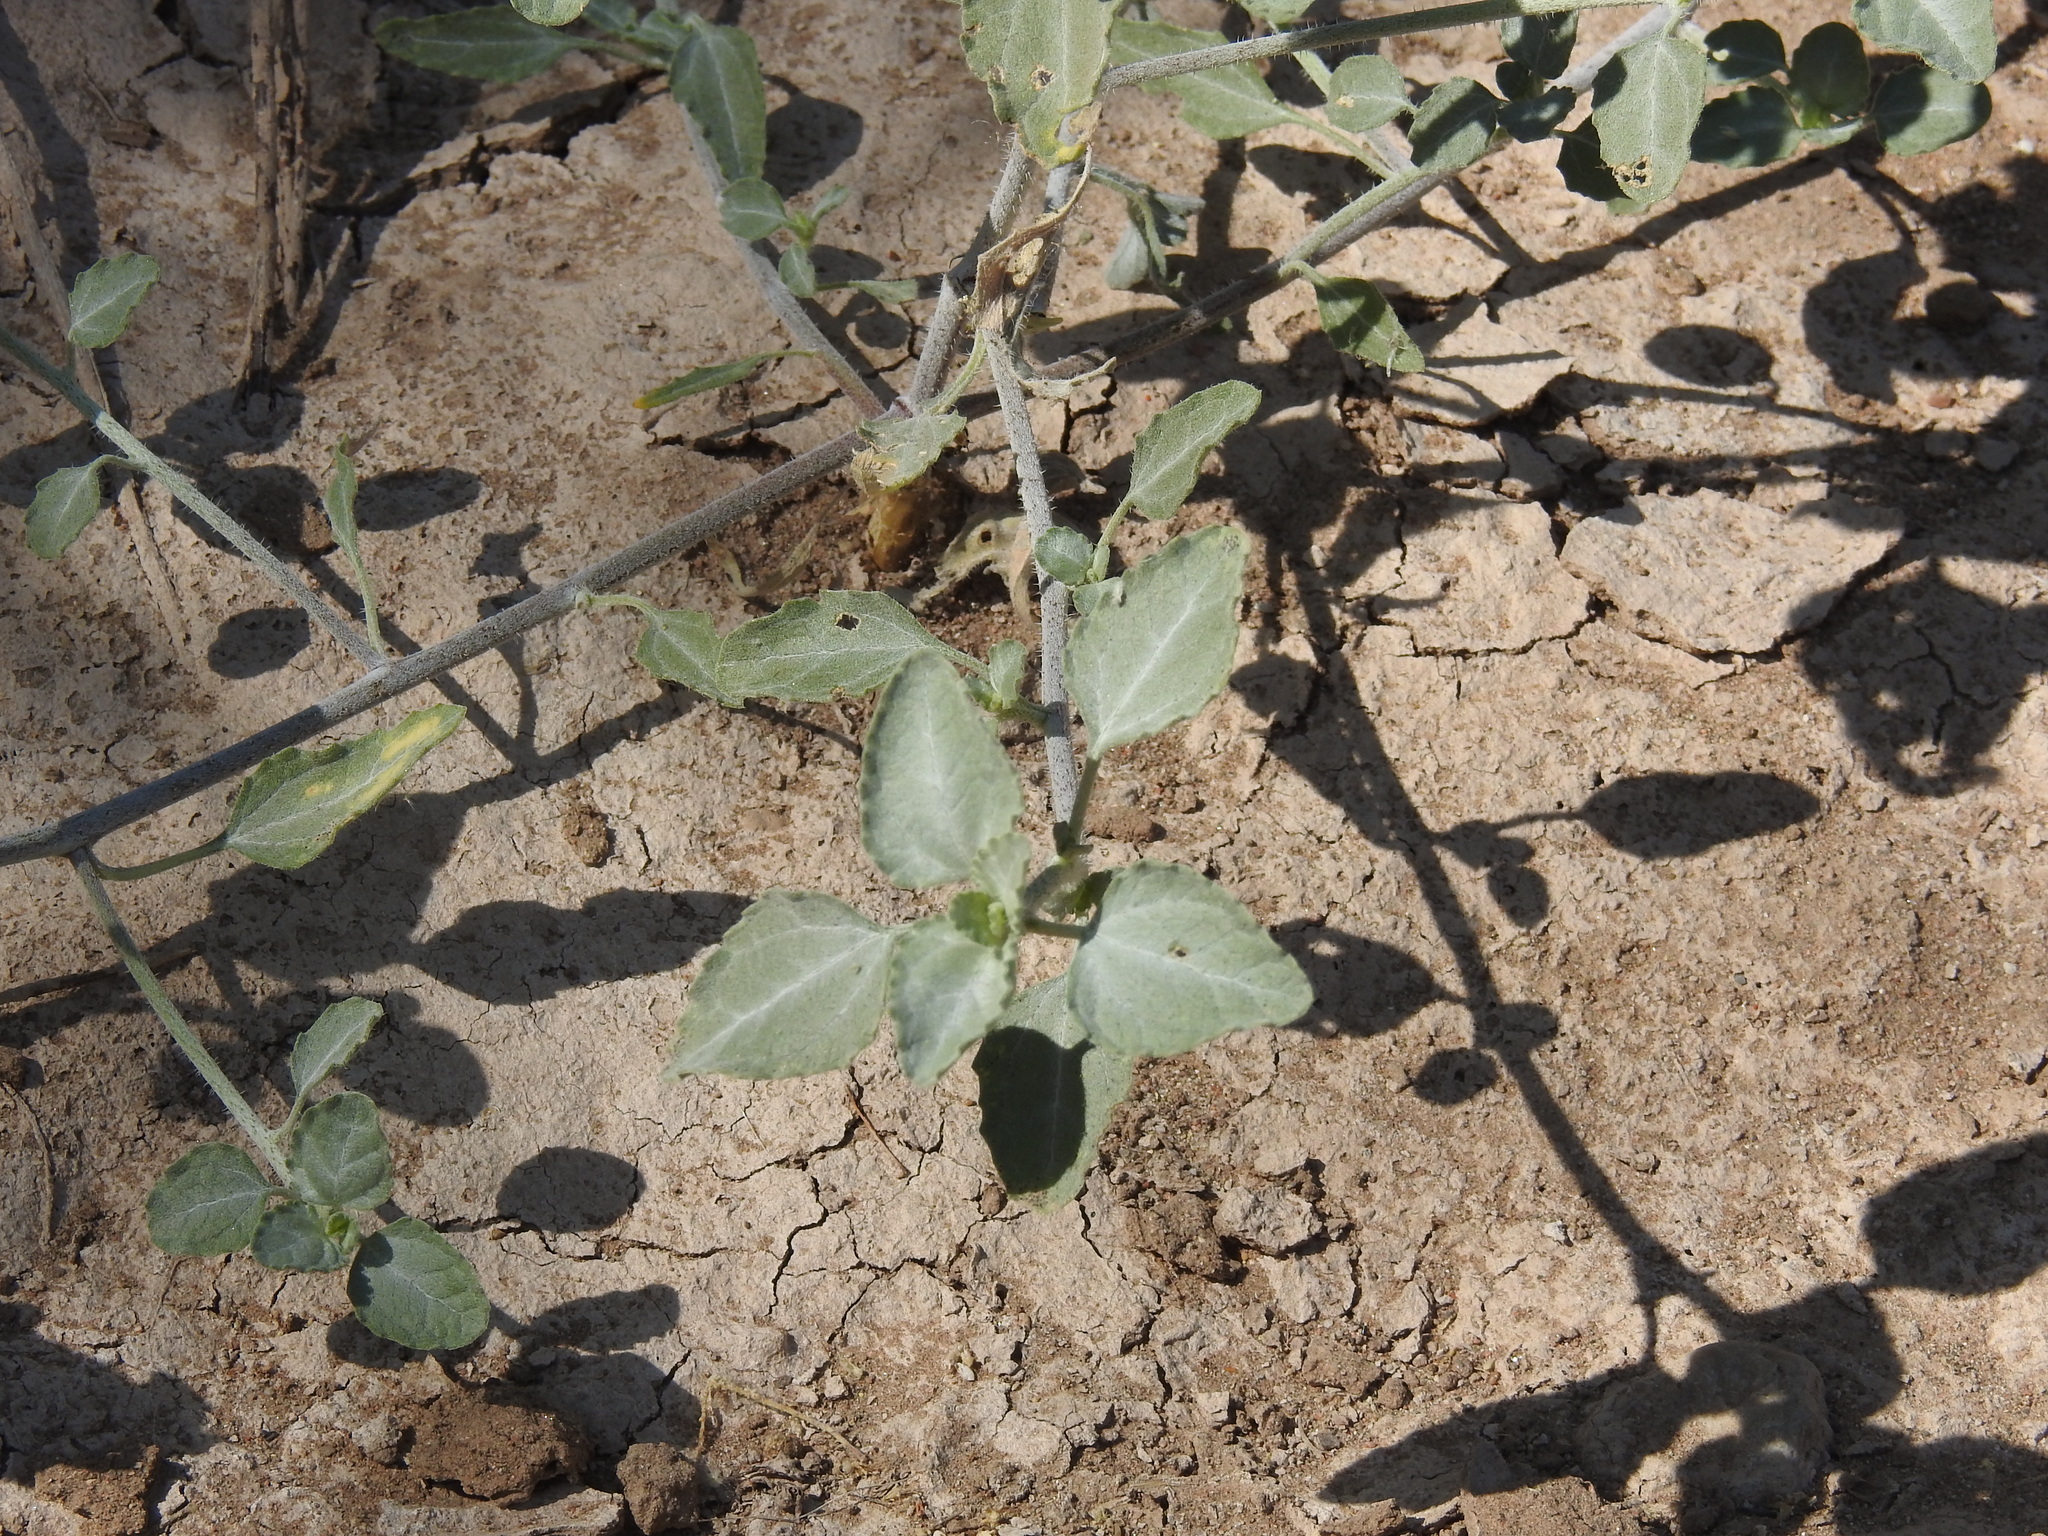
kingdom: Plantae
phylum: Tracheophyta
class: Magnoliopsida
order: Asterales
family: Asteraceae
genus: Dicoria
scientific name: Dicoria canescens
